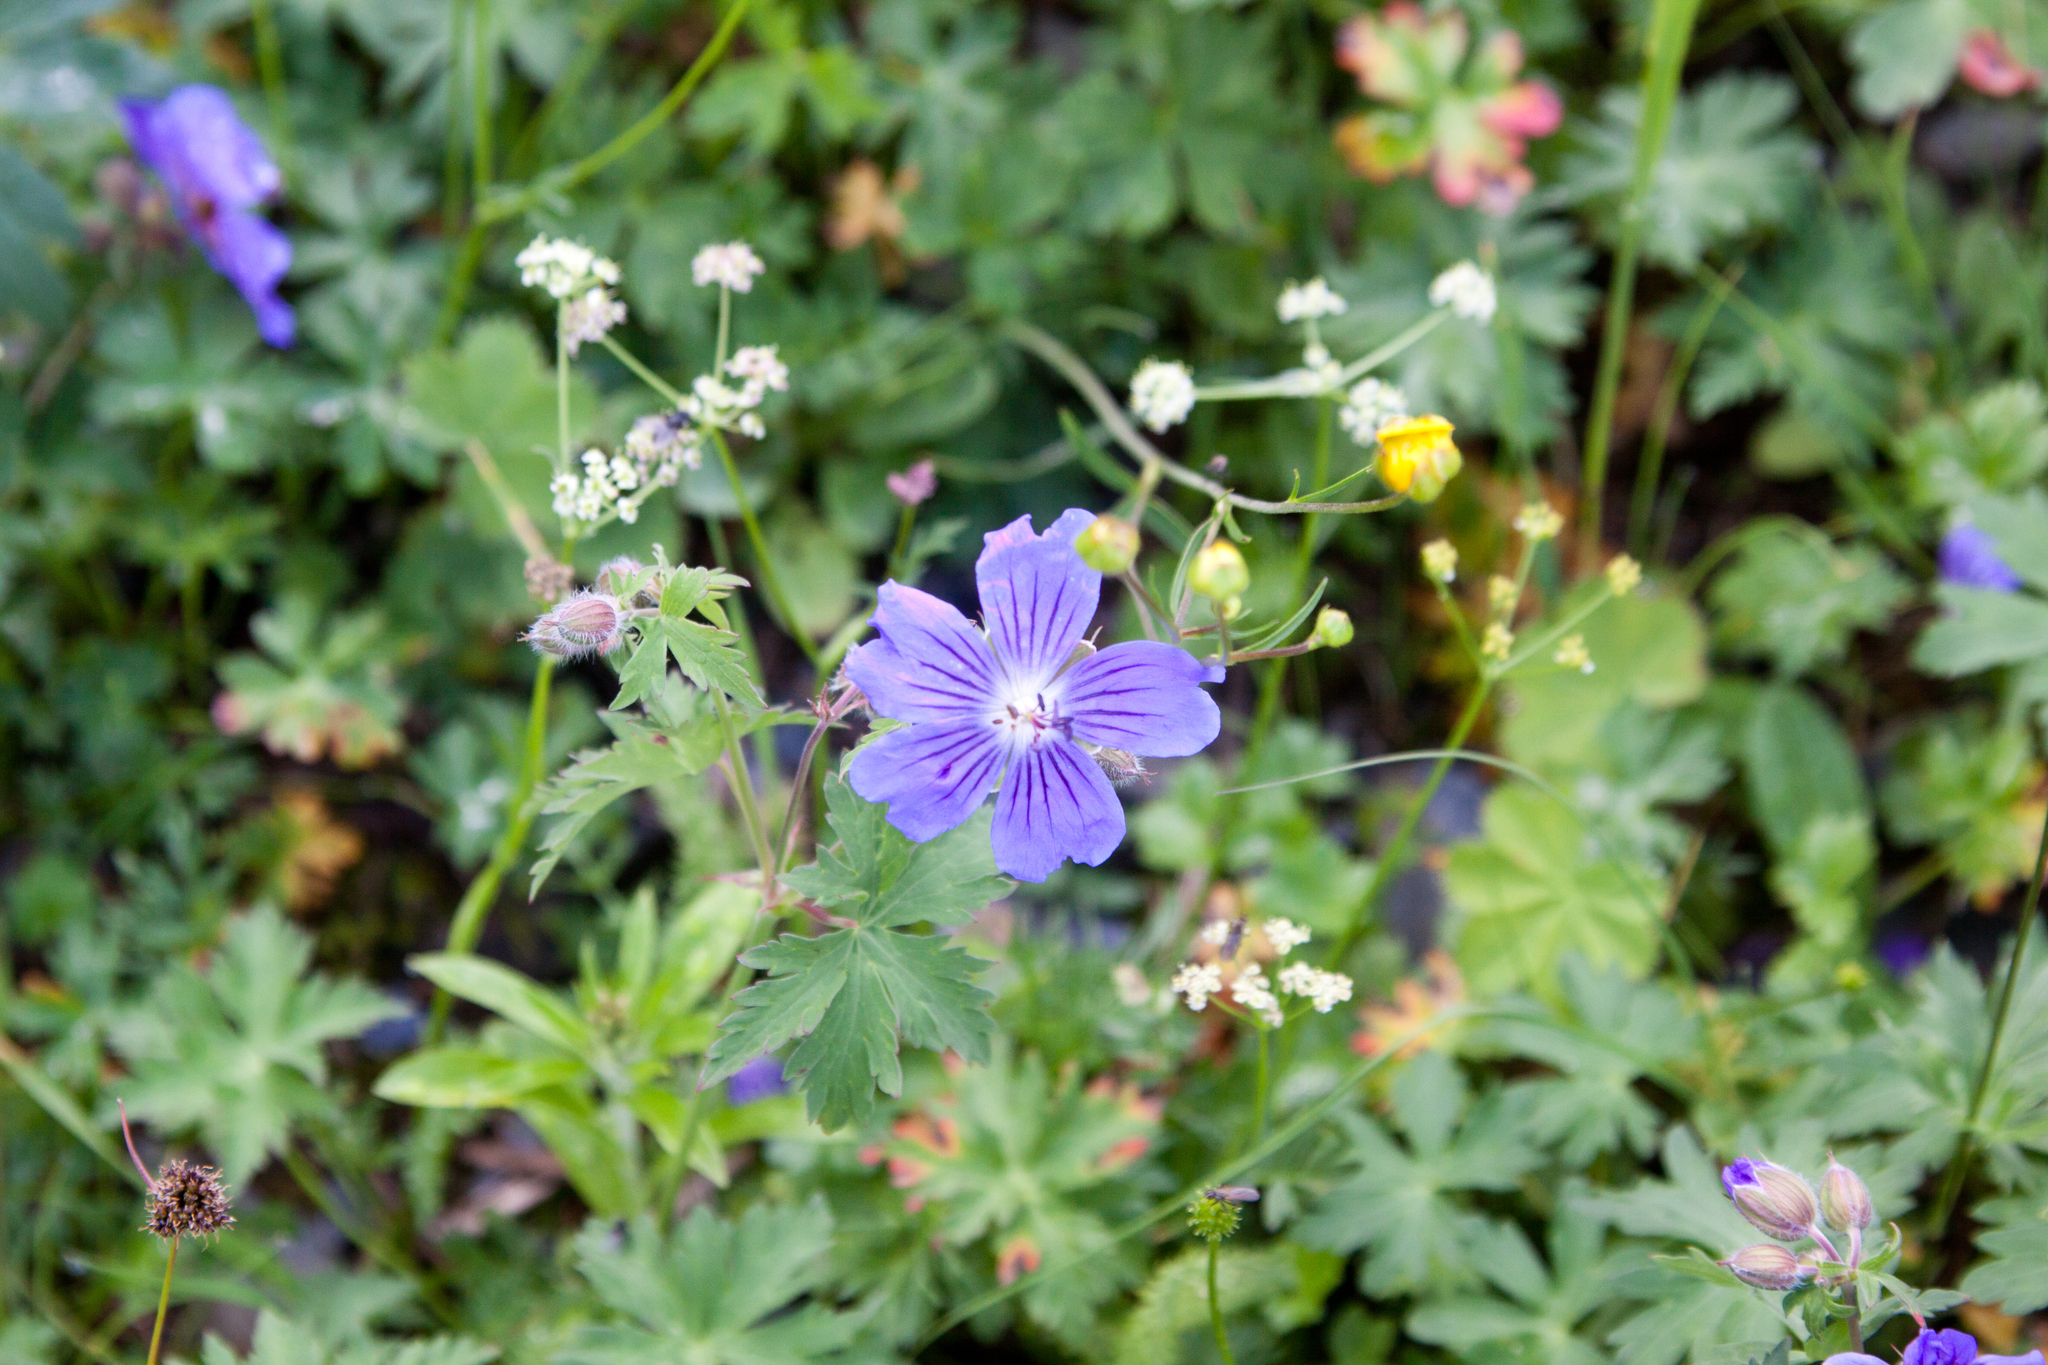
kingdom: Plantae
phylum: Tracheophyta
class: Magnoliopsida
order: Geraniales
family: Geraniaceae
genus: Geranium
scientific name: Geranium gymnocaulon
